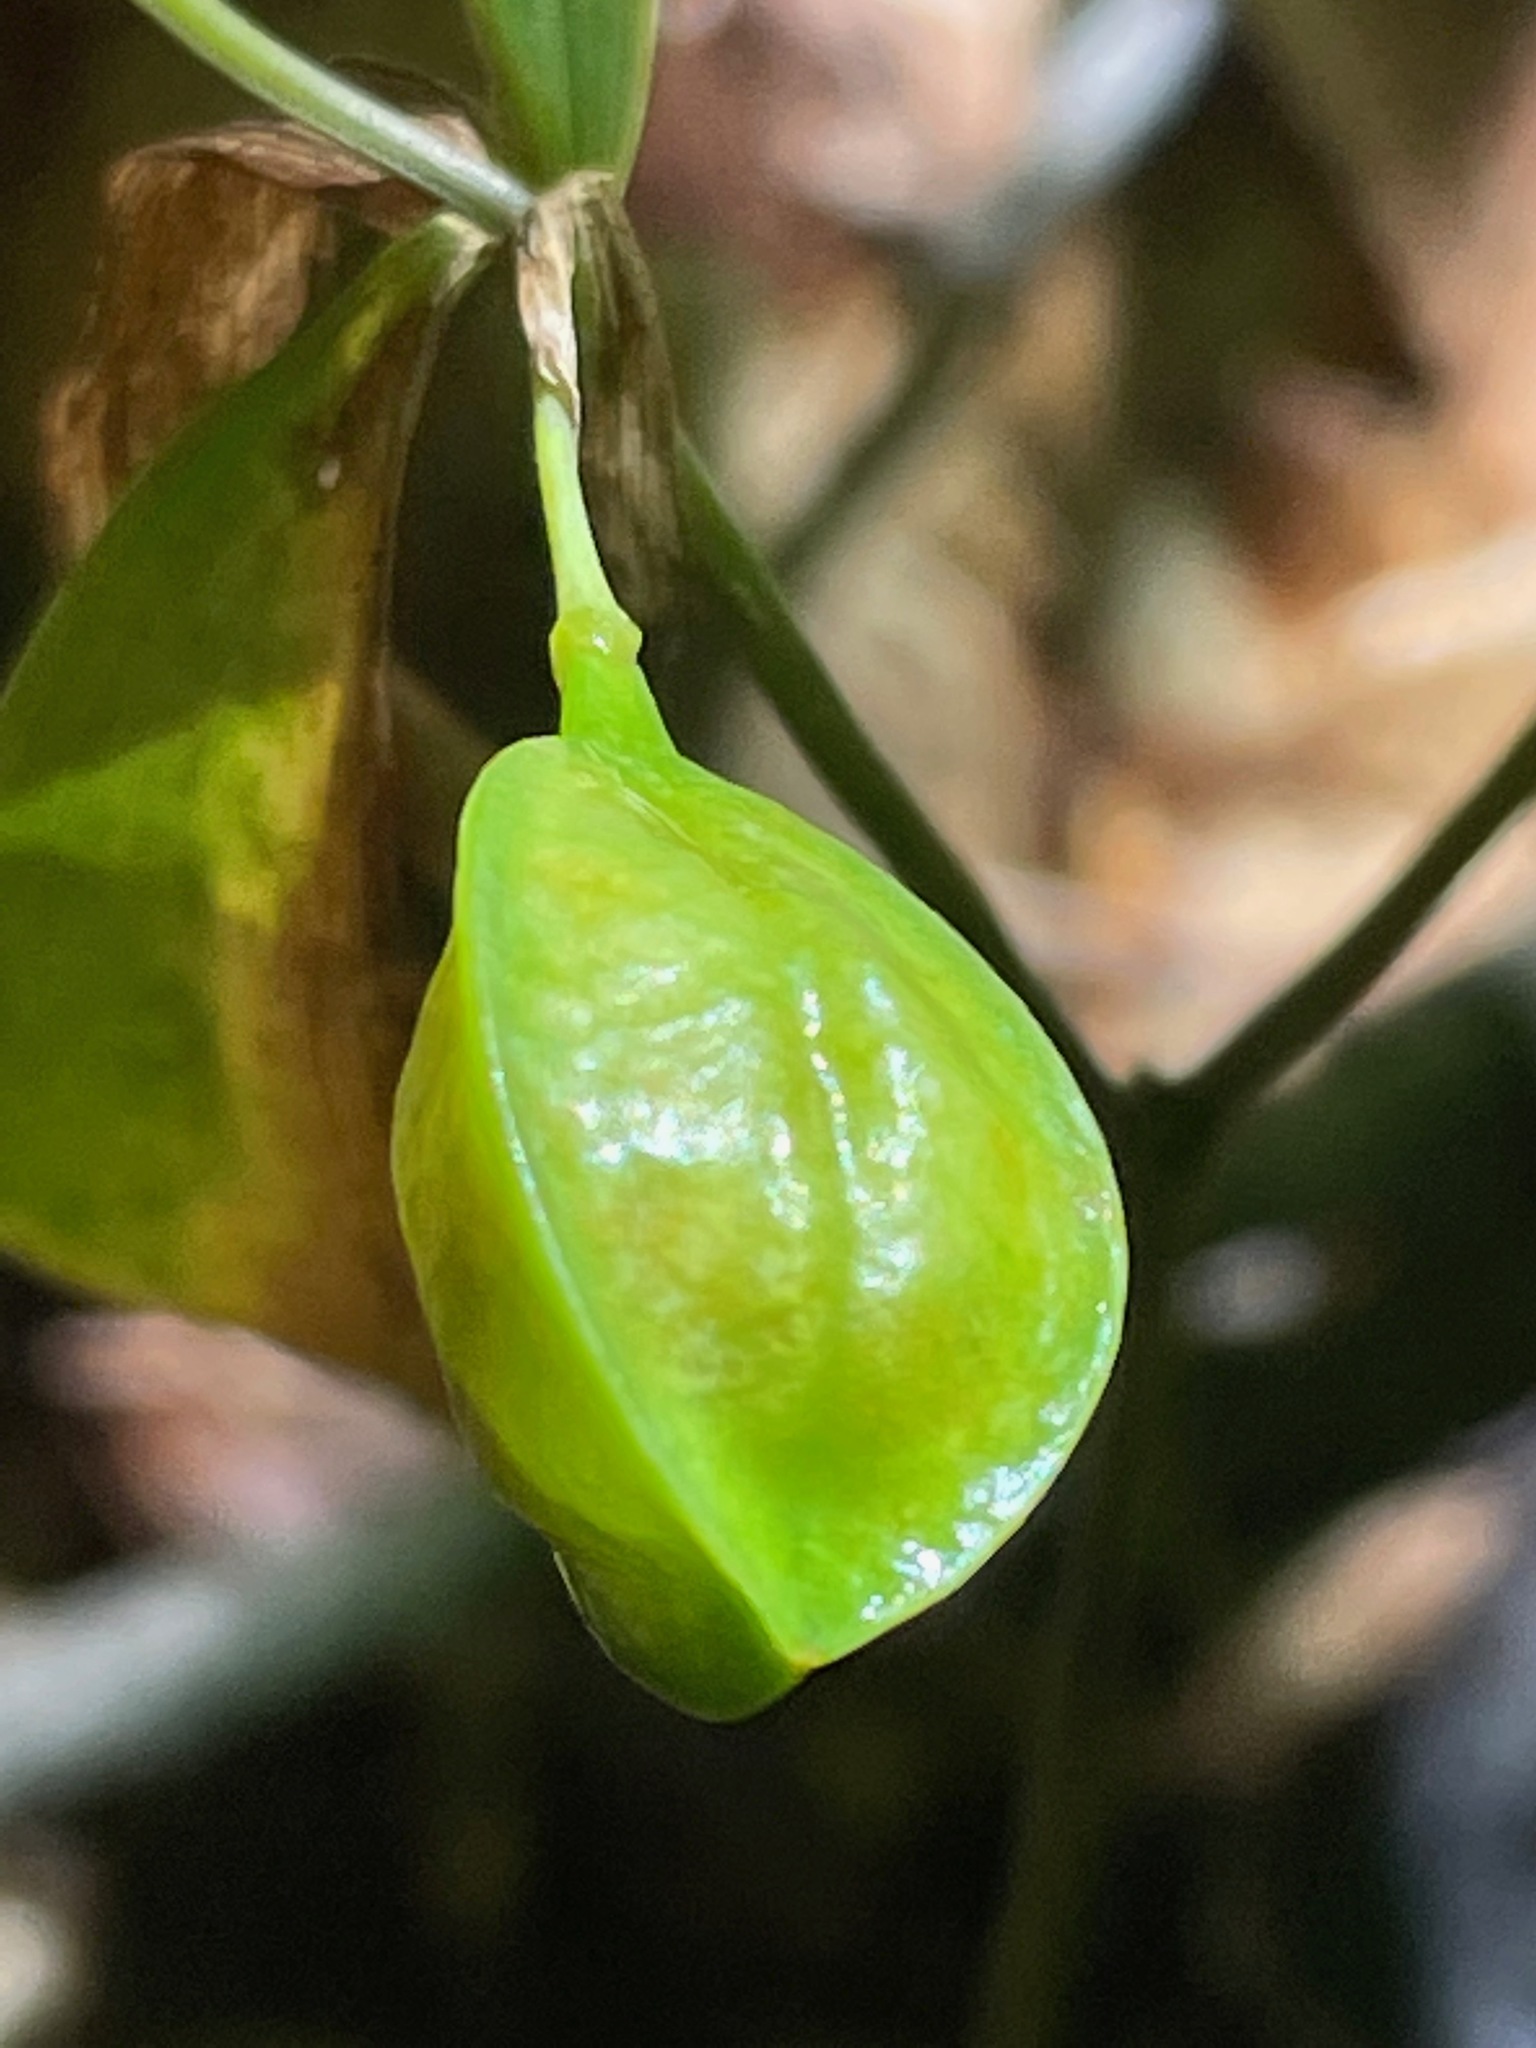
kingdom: Plantae
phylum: Tracheophyta
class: Liliopsida
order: Liliales
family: Colchicaceae
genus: Uvularia
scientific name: Uvularia sessilifolia
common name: Straw-lily
